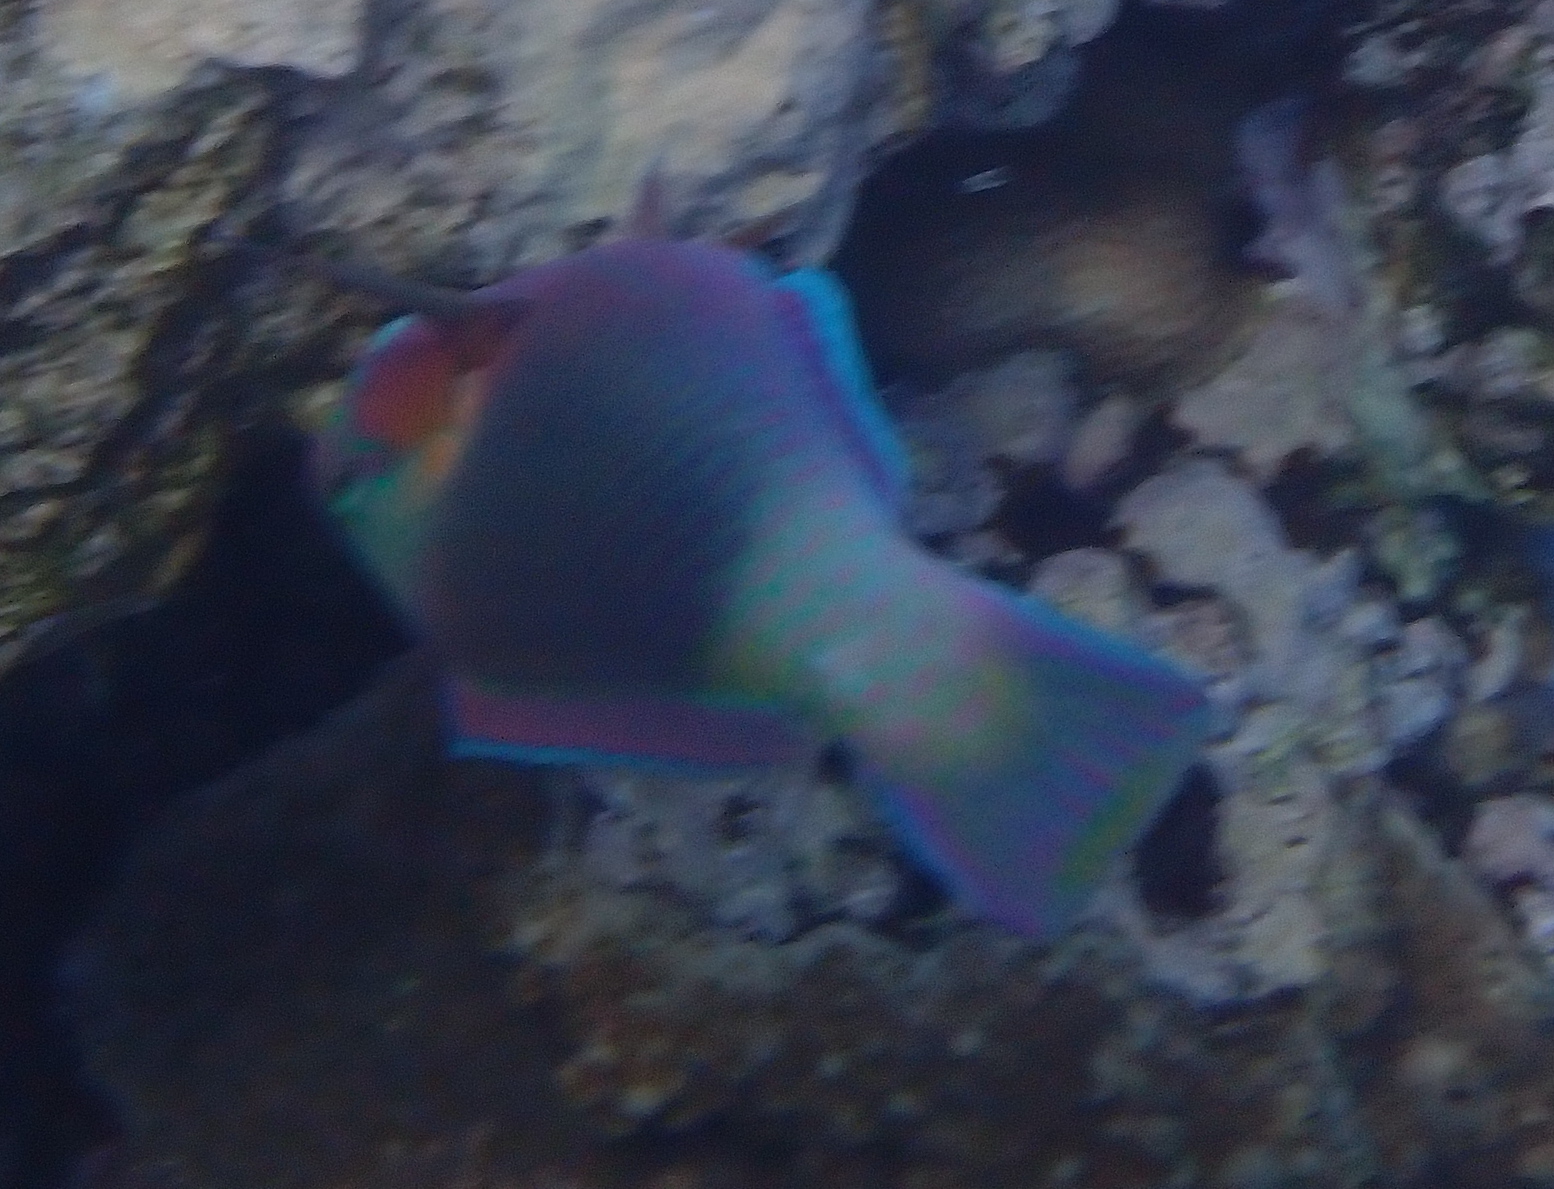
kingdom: Animalia
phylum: Chordata
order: Perciformes
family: Scaridae
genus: Chlorurus
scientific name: Chlorurus sordidus
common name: Bullethead parrotfish
